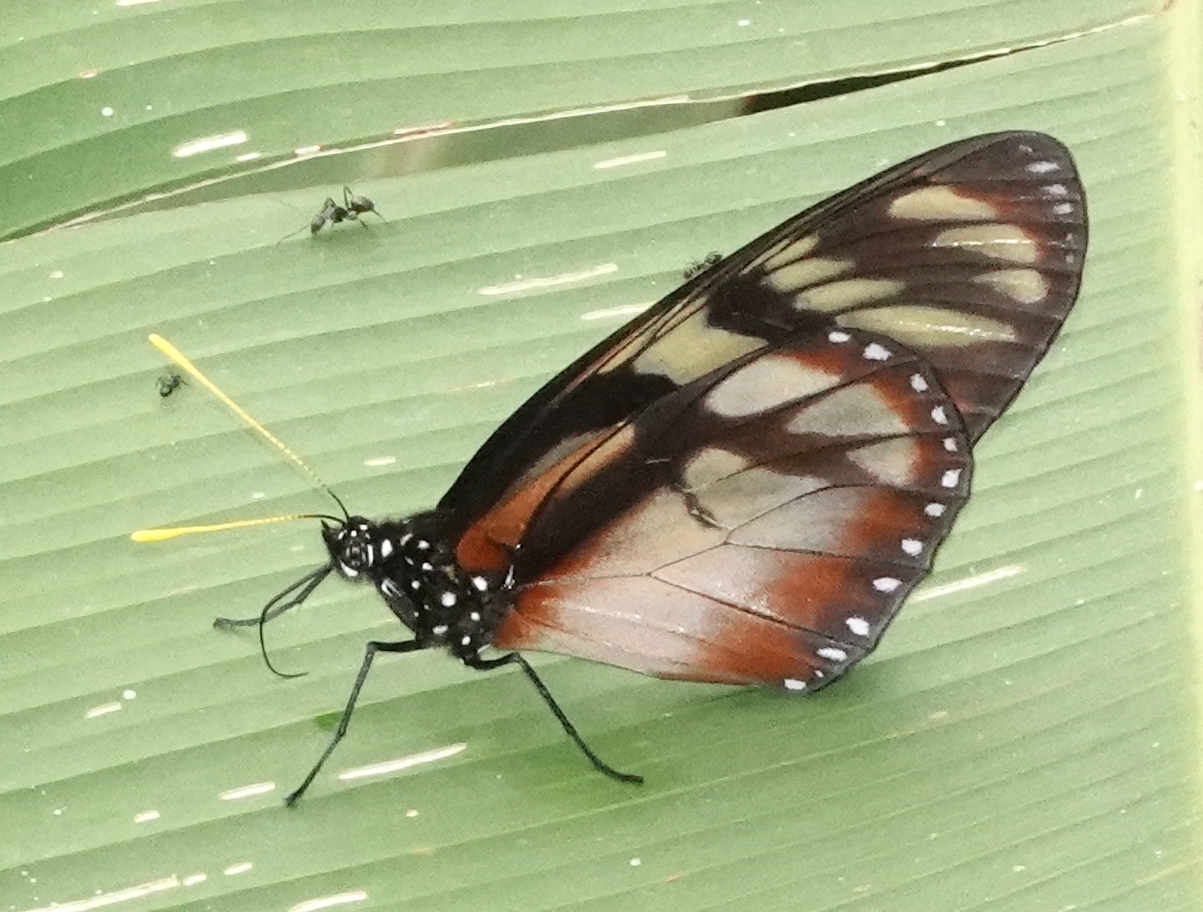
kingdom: Animalia
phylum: Arthropoda
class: Insecta
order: Lepidoptera
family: Nymphalidae
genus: Lycorea
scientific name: Lycorea ilione
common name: Clearwing mimic-queen
